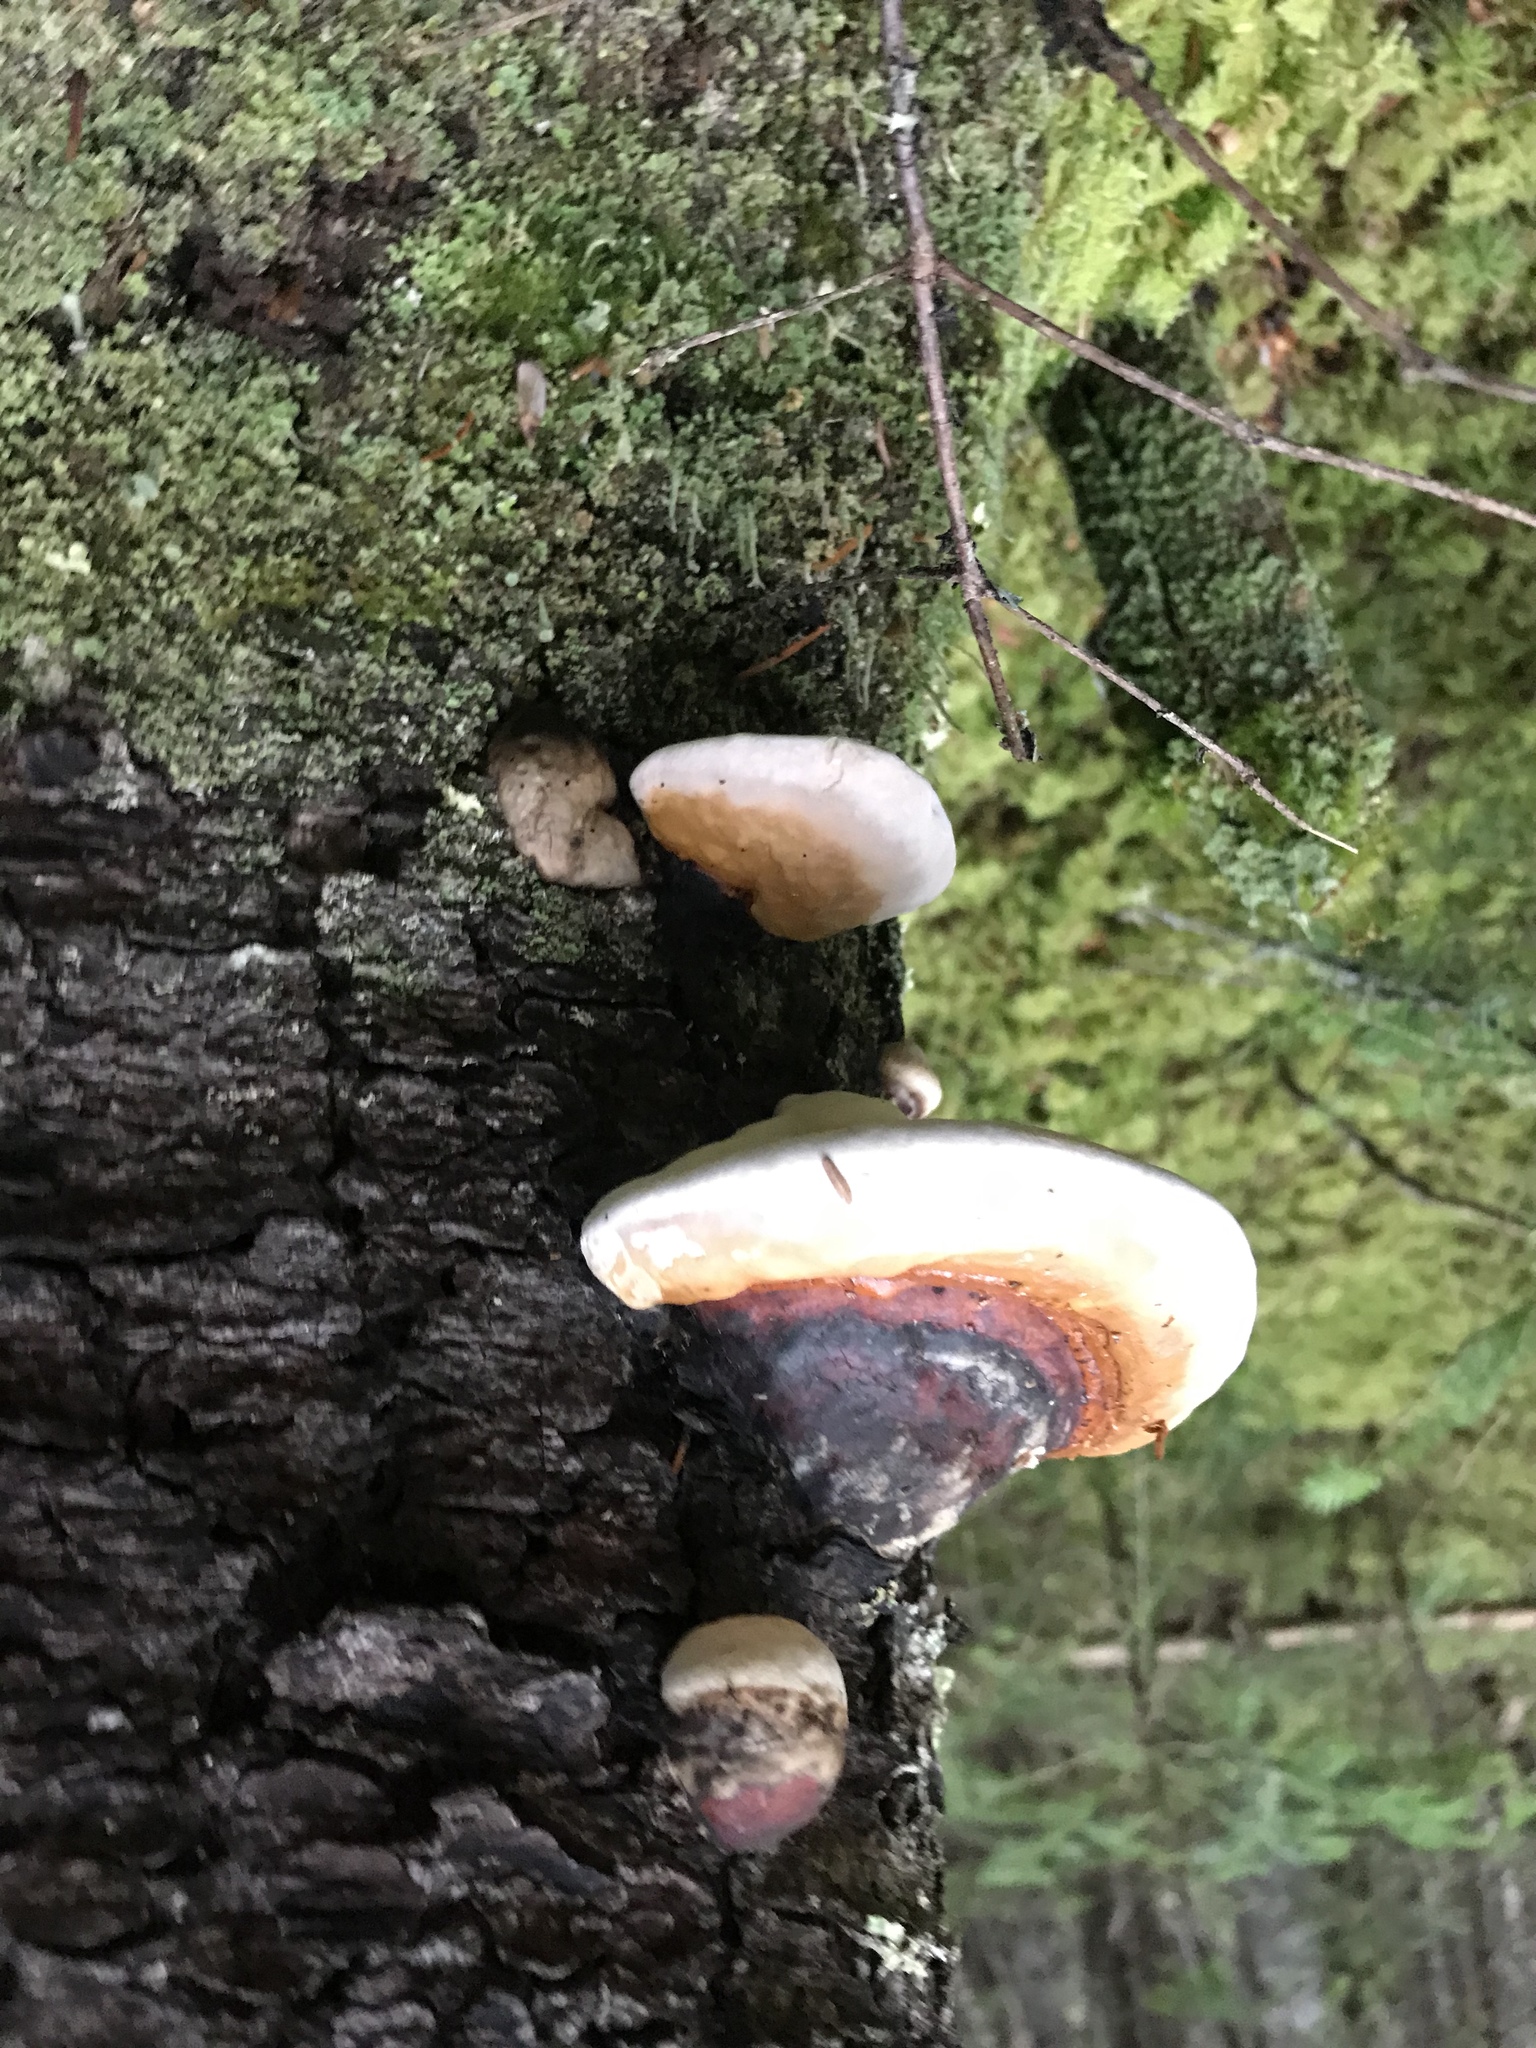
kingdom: Fungi
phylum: Basidiomycota
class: Agaricomycetes
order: Polyporales
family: Fomitopsidaceae
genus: Fomitopsis
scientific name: Fomitopsis mounceae
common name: Northern red belt
